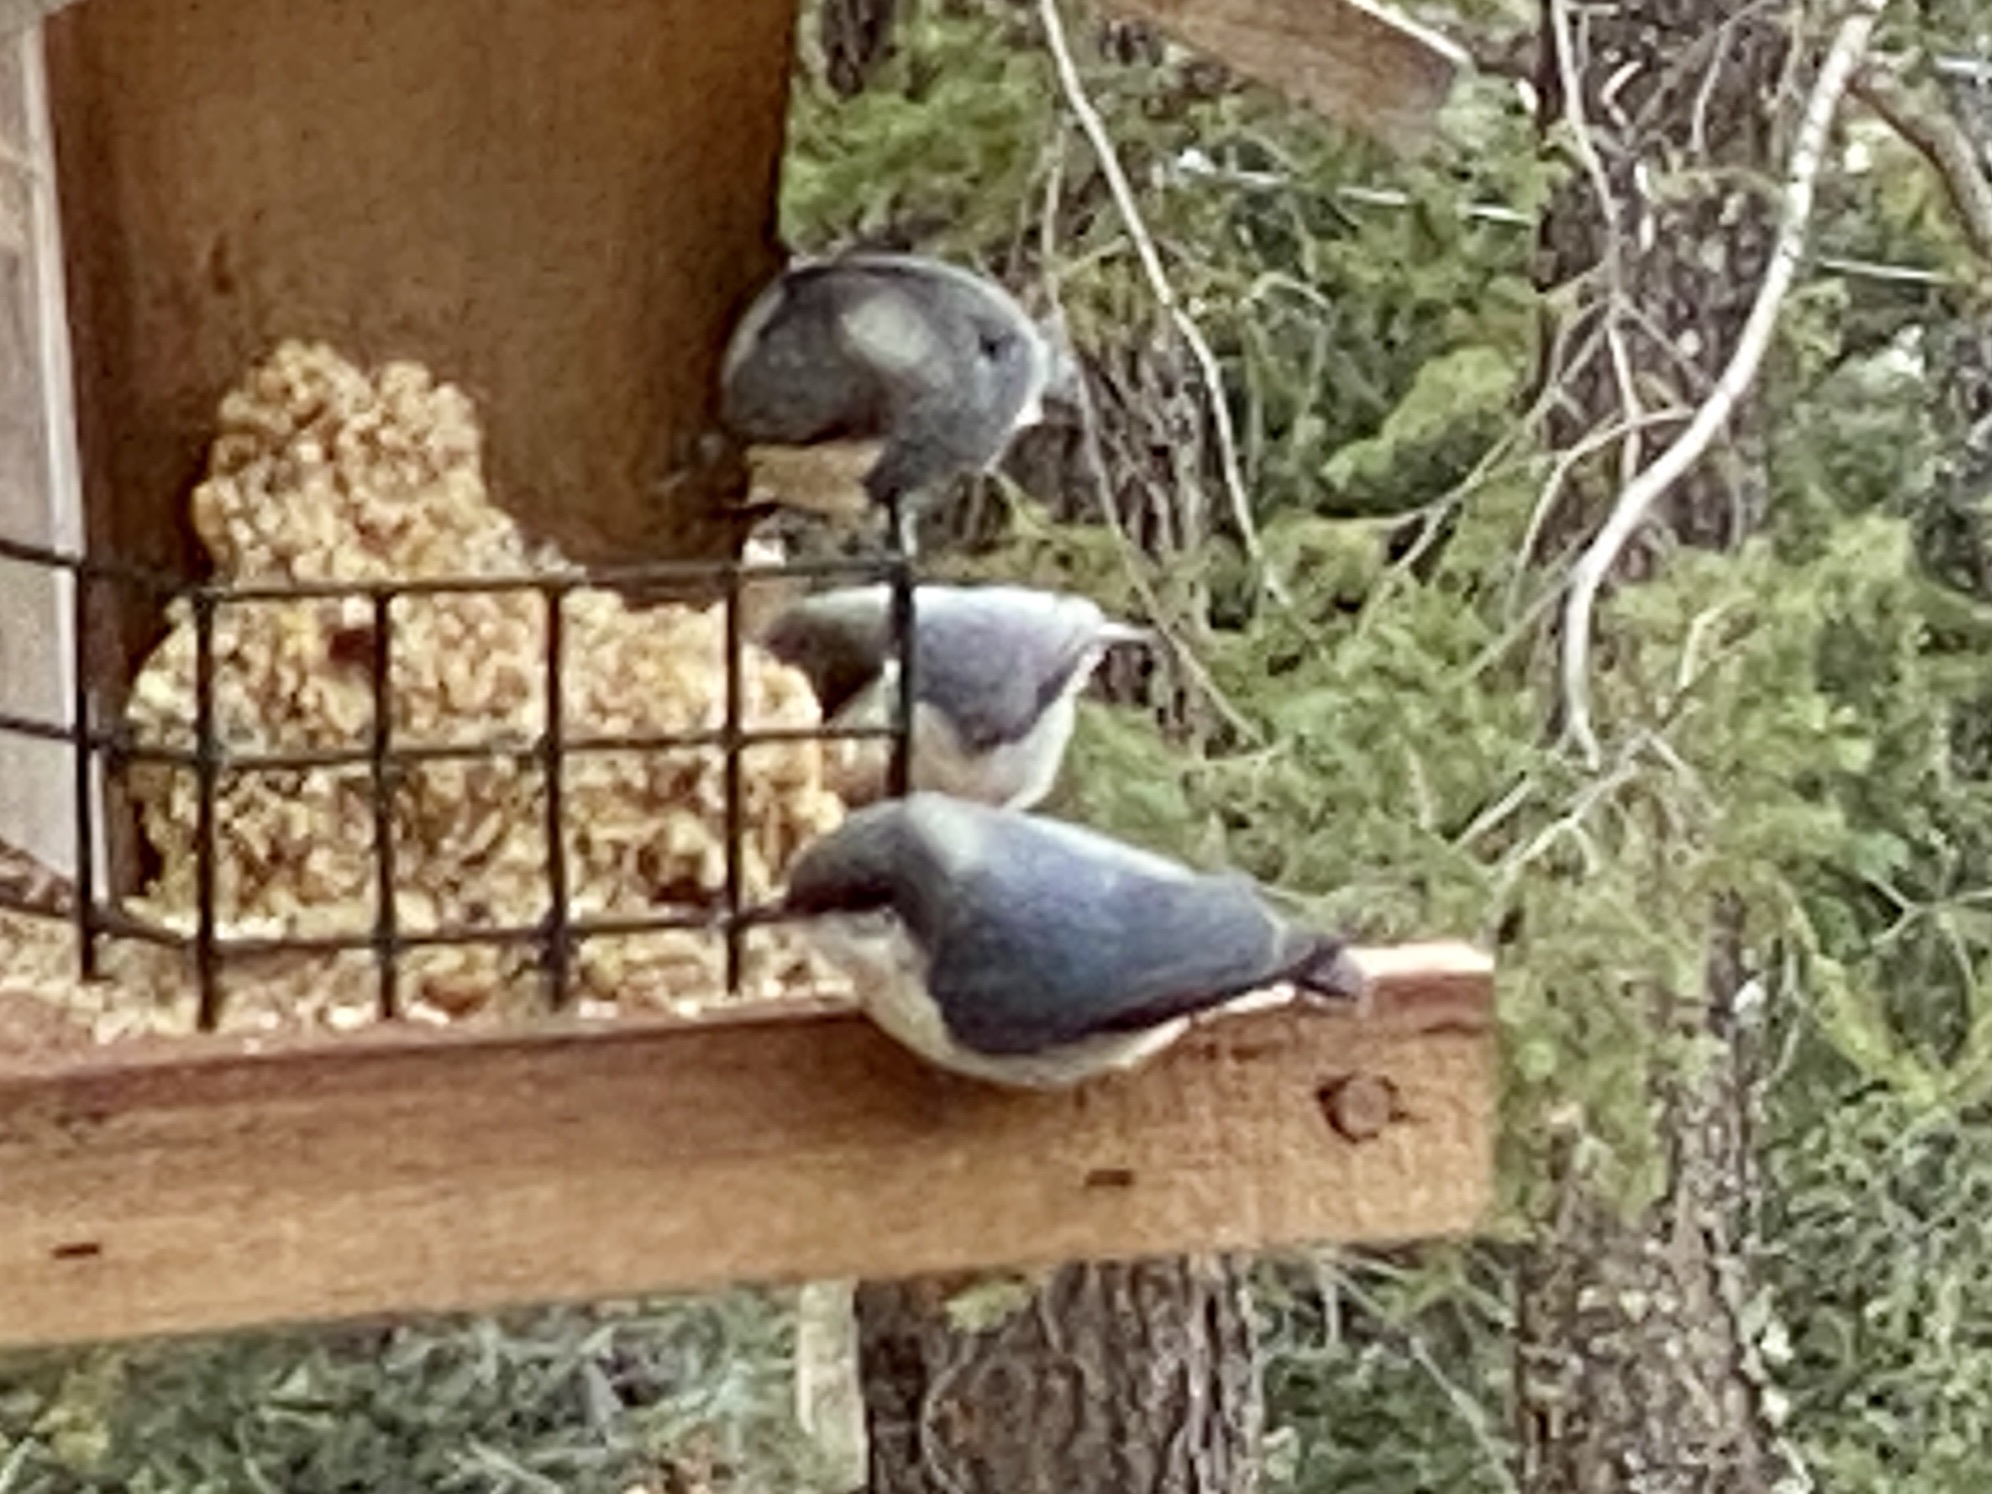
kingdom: Animalia
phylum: Chordata
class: Aves
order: Passeriformes
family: Sittidae
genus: Sitta
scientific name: Sitta pygmaea
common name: Pygmy nuthatch
